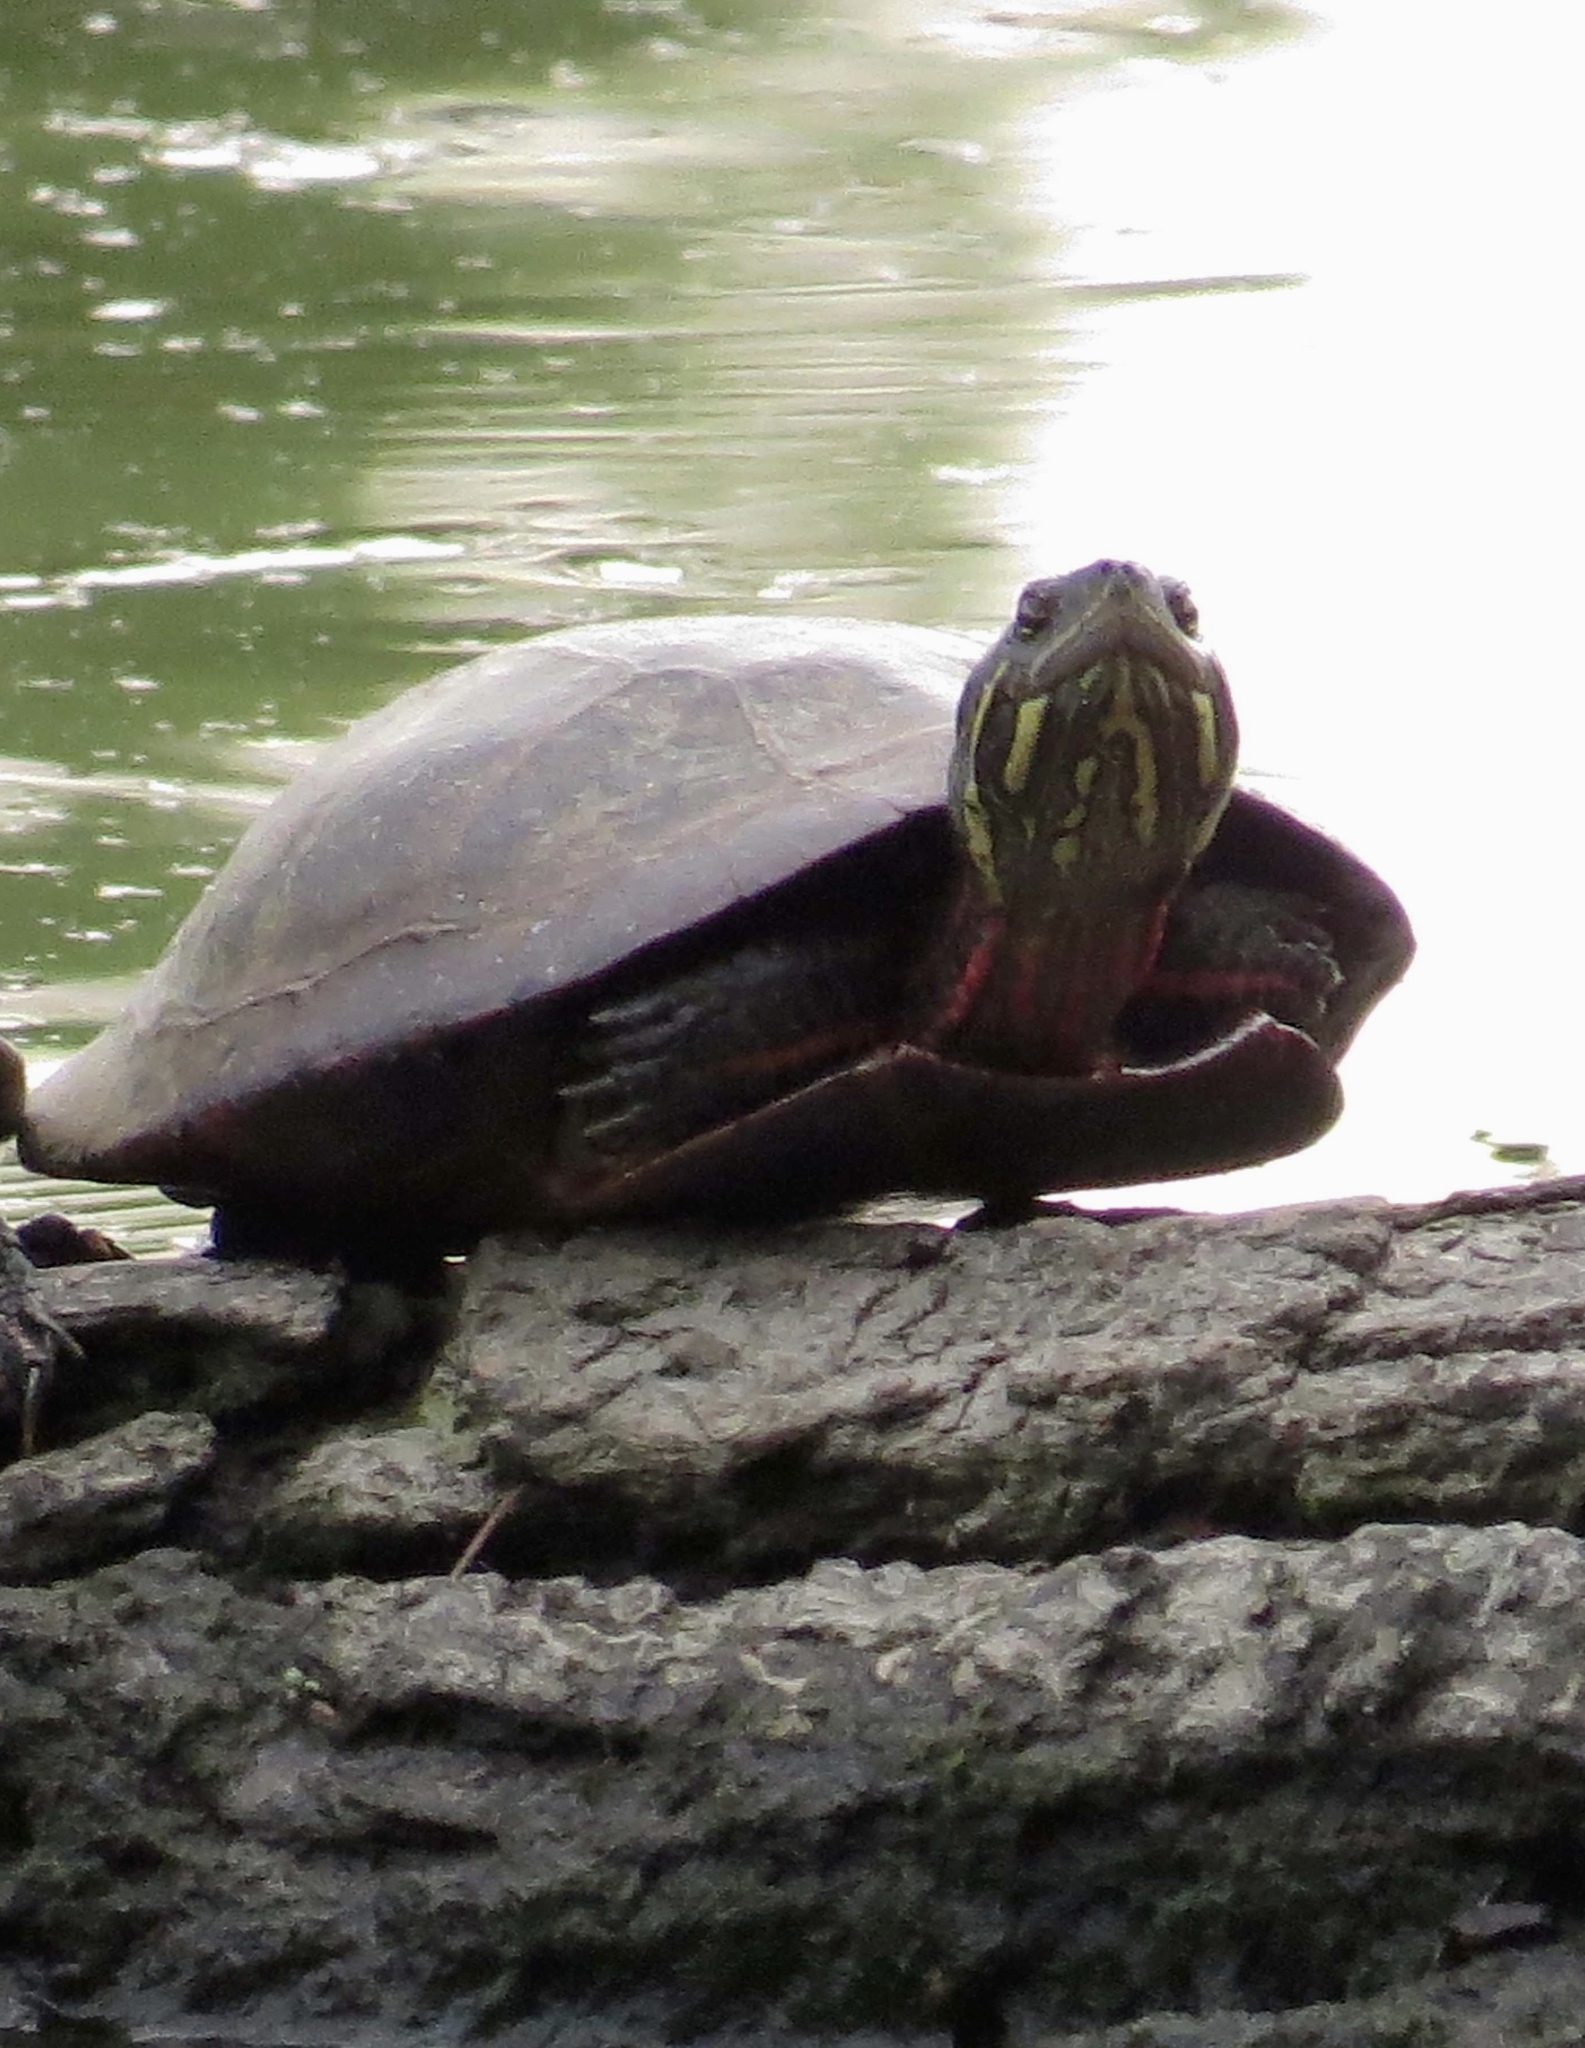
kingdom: Animalia
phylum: Chordata
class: Testudines
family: Emydidae
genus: Chrysemys
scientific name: Chrysemys picta
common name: Painted turtle
